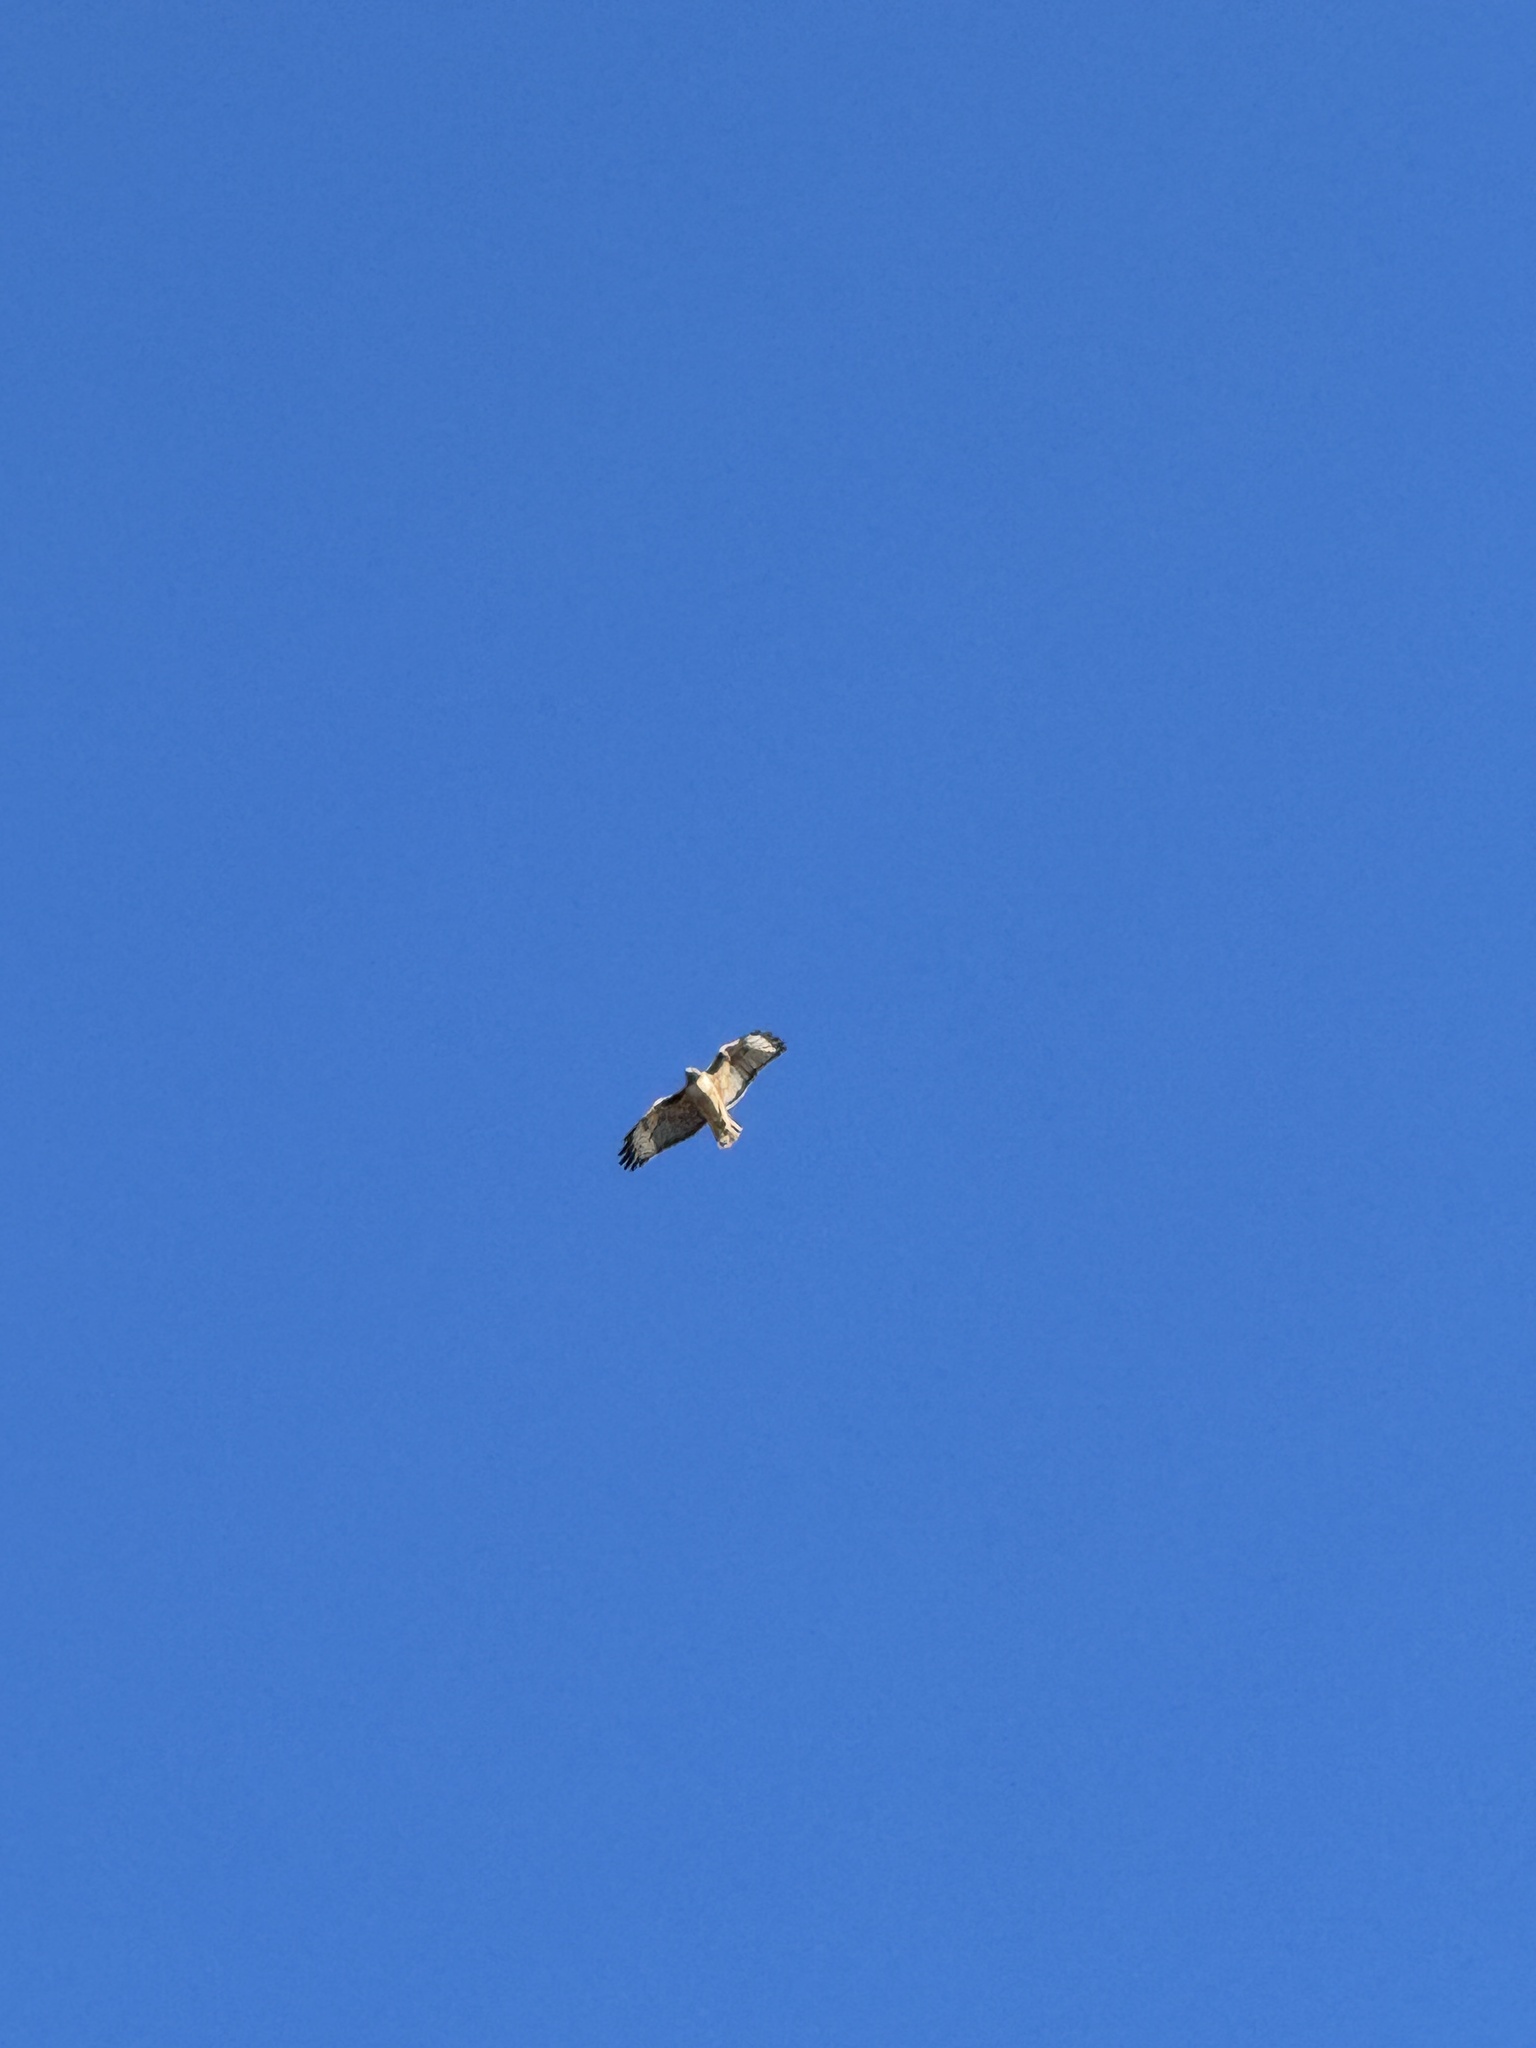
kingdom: Animalia
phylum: Chordata
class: Aves
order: Accipitriformes
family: Accipitridae
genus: Buteo
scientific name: Buteo jamaicensis
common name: Red-tailed hawk
